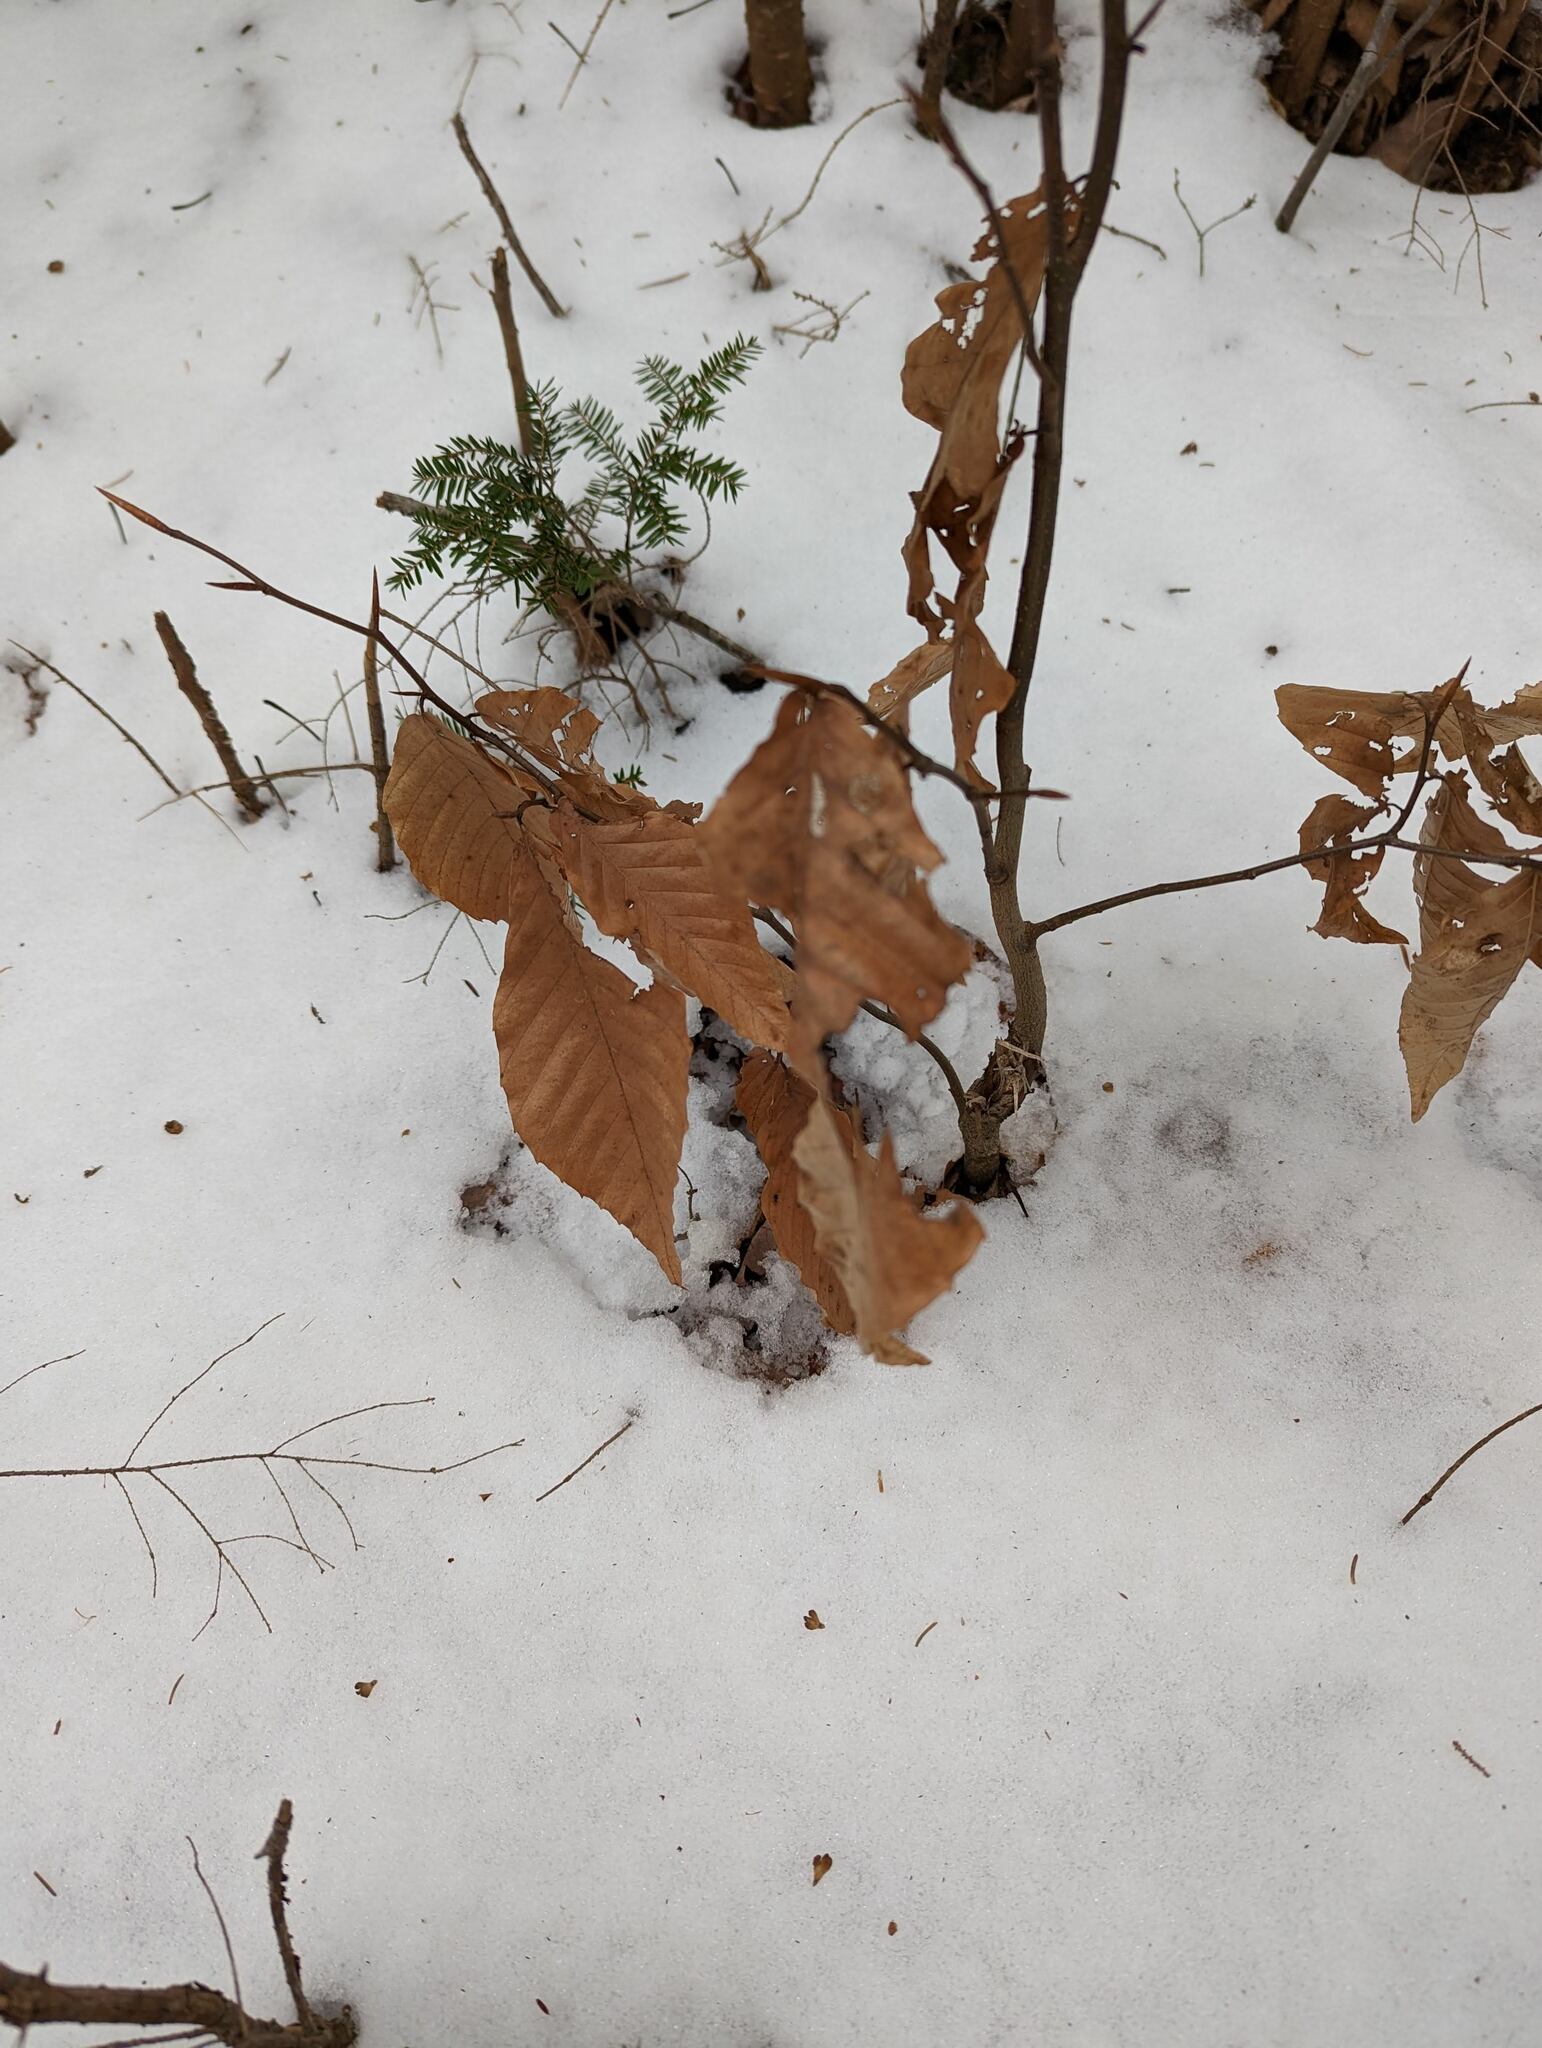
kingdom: Plantae
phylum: Tracheophyta
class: Magnoliopsida
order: Fagales
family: Fagaceae
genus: Fagus
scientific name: Fagus grandifolia
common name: American beech
